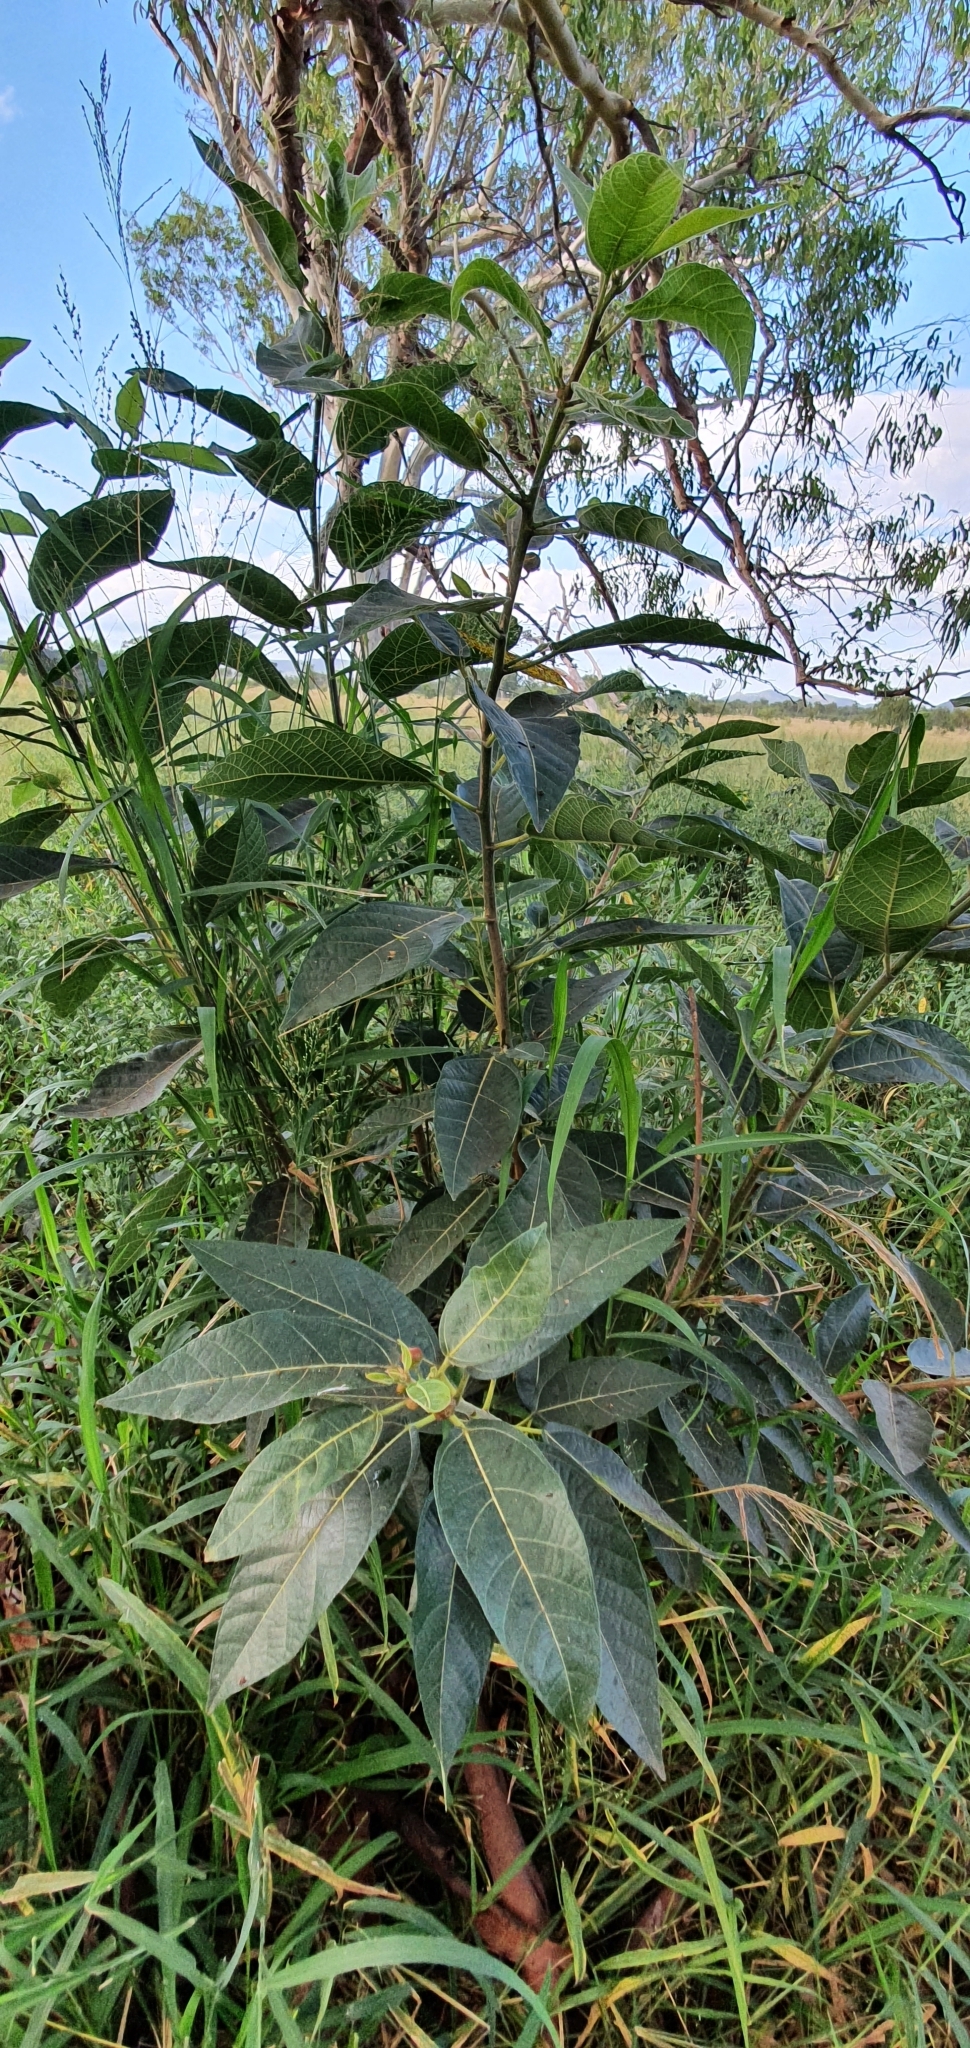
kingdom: Plantae
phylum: Tracheophyta
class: Magnoliopsida
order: Rosales
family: Moraceae
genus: Ficus
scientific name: Ficus opposita
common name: Figwood
